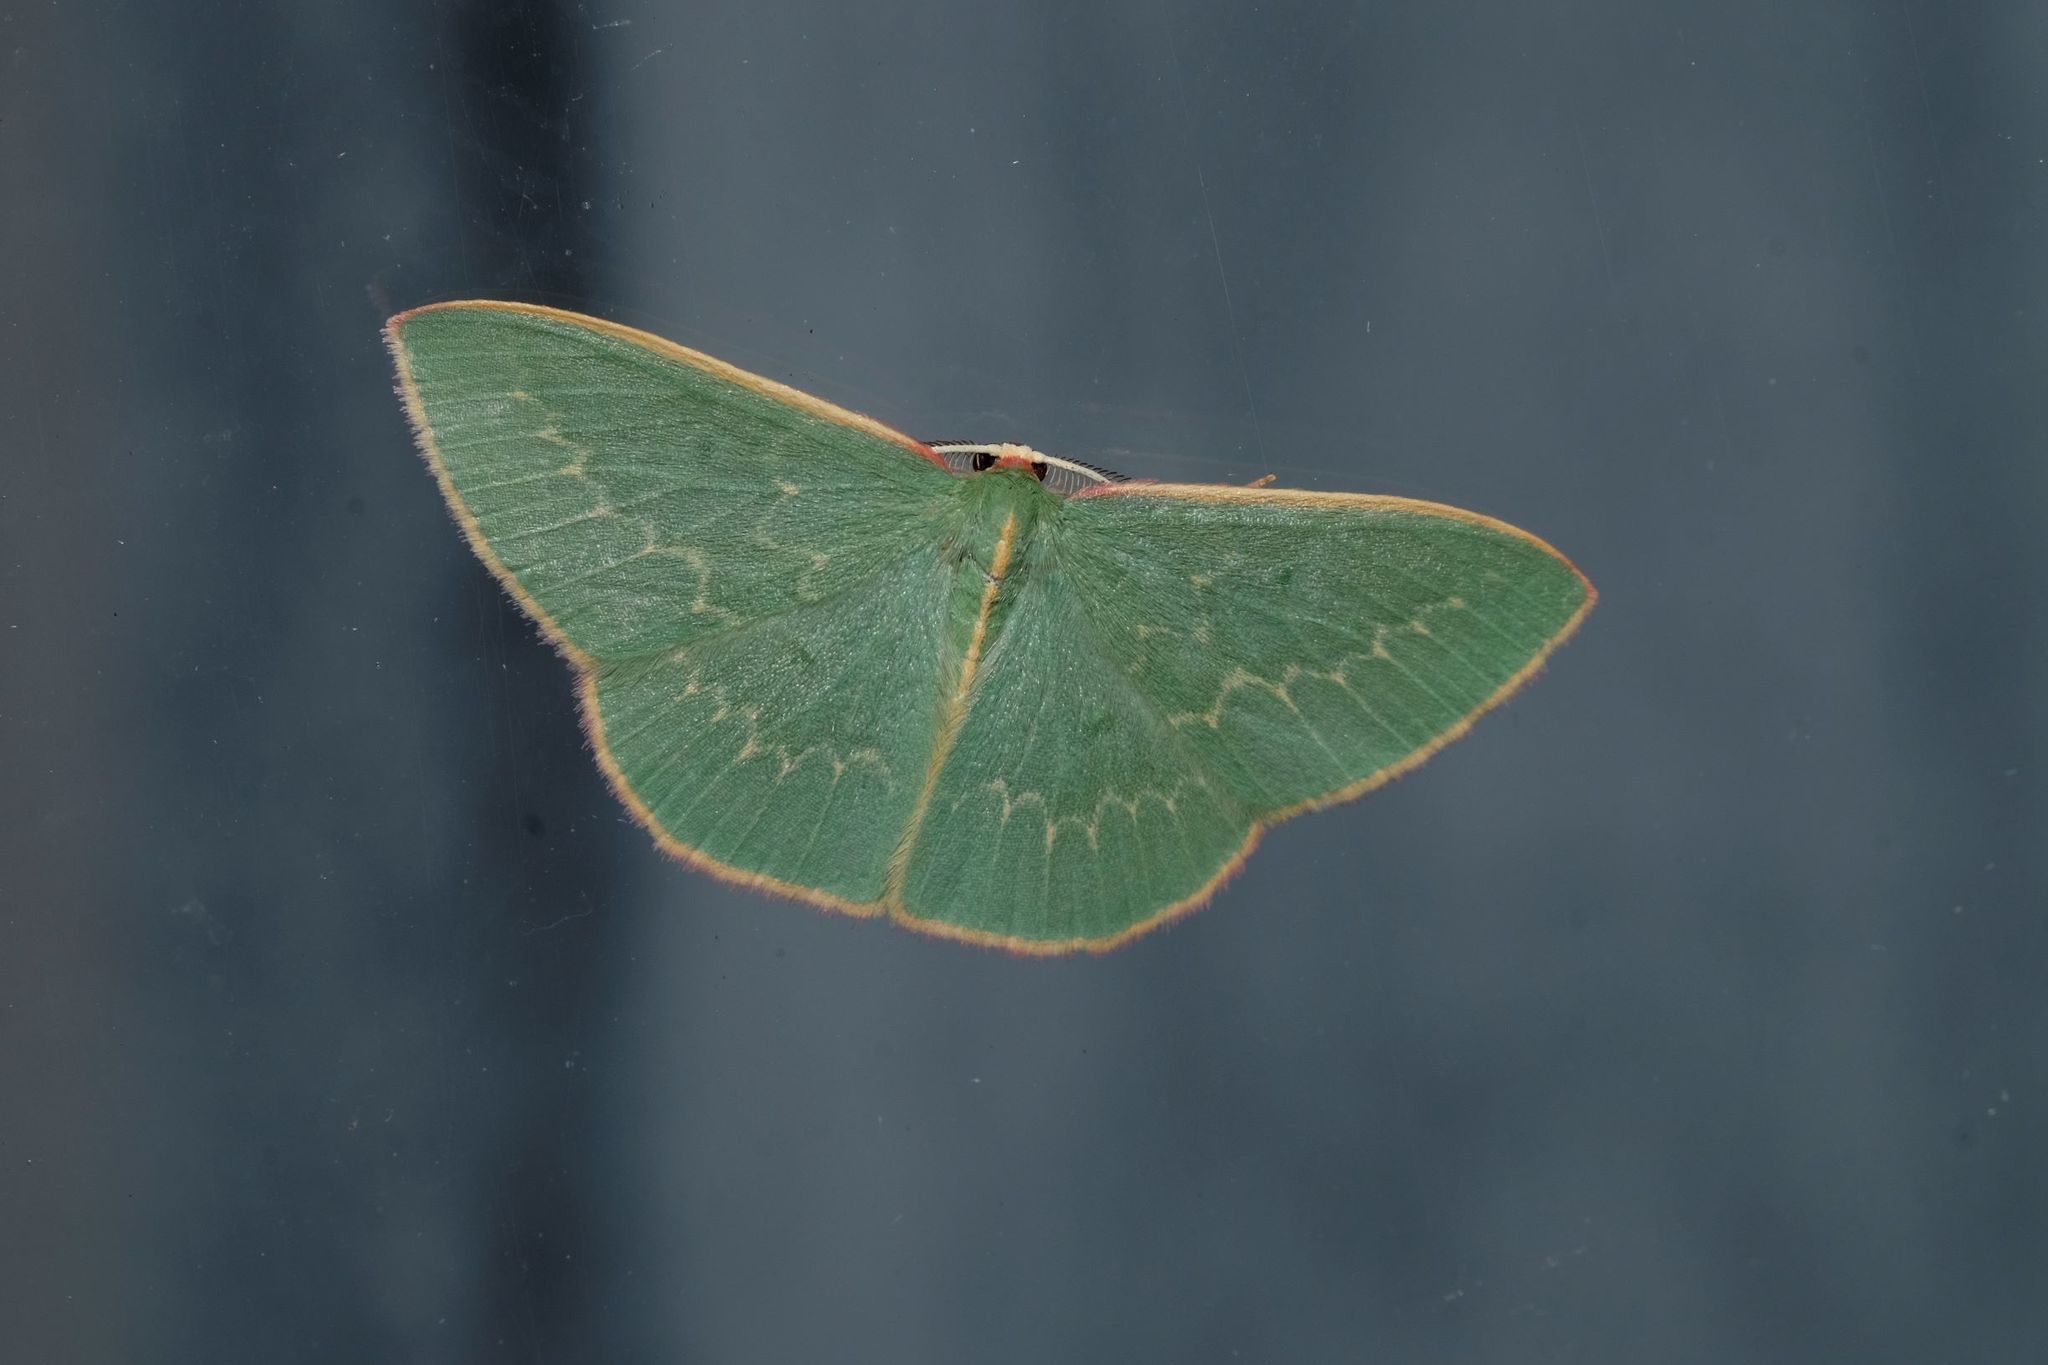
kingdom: Animalia
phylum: Arthropoda
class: Insecta
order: Lepidoptera
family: Geometridae
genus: Chlorocoma
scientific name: Chlorocoma dichloraria
